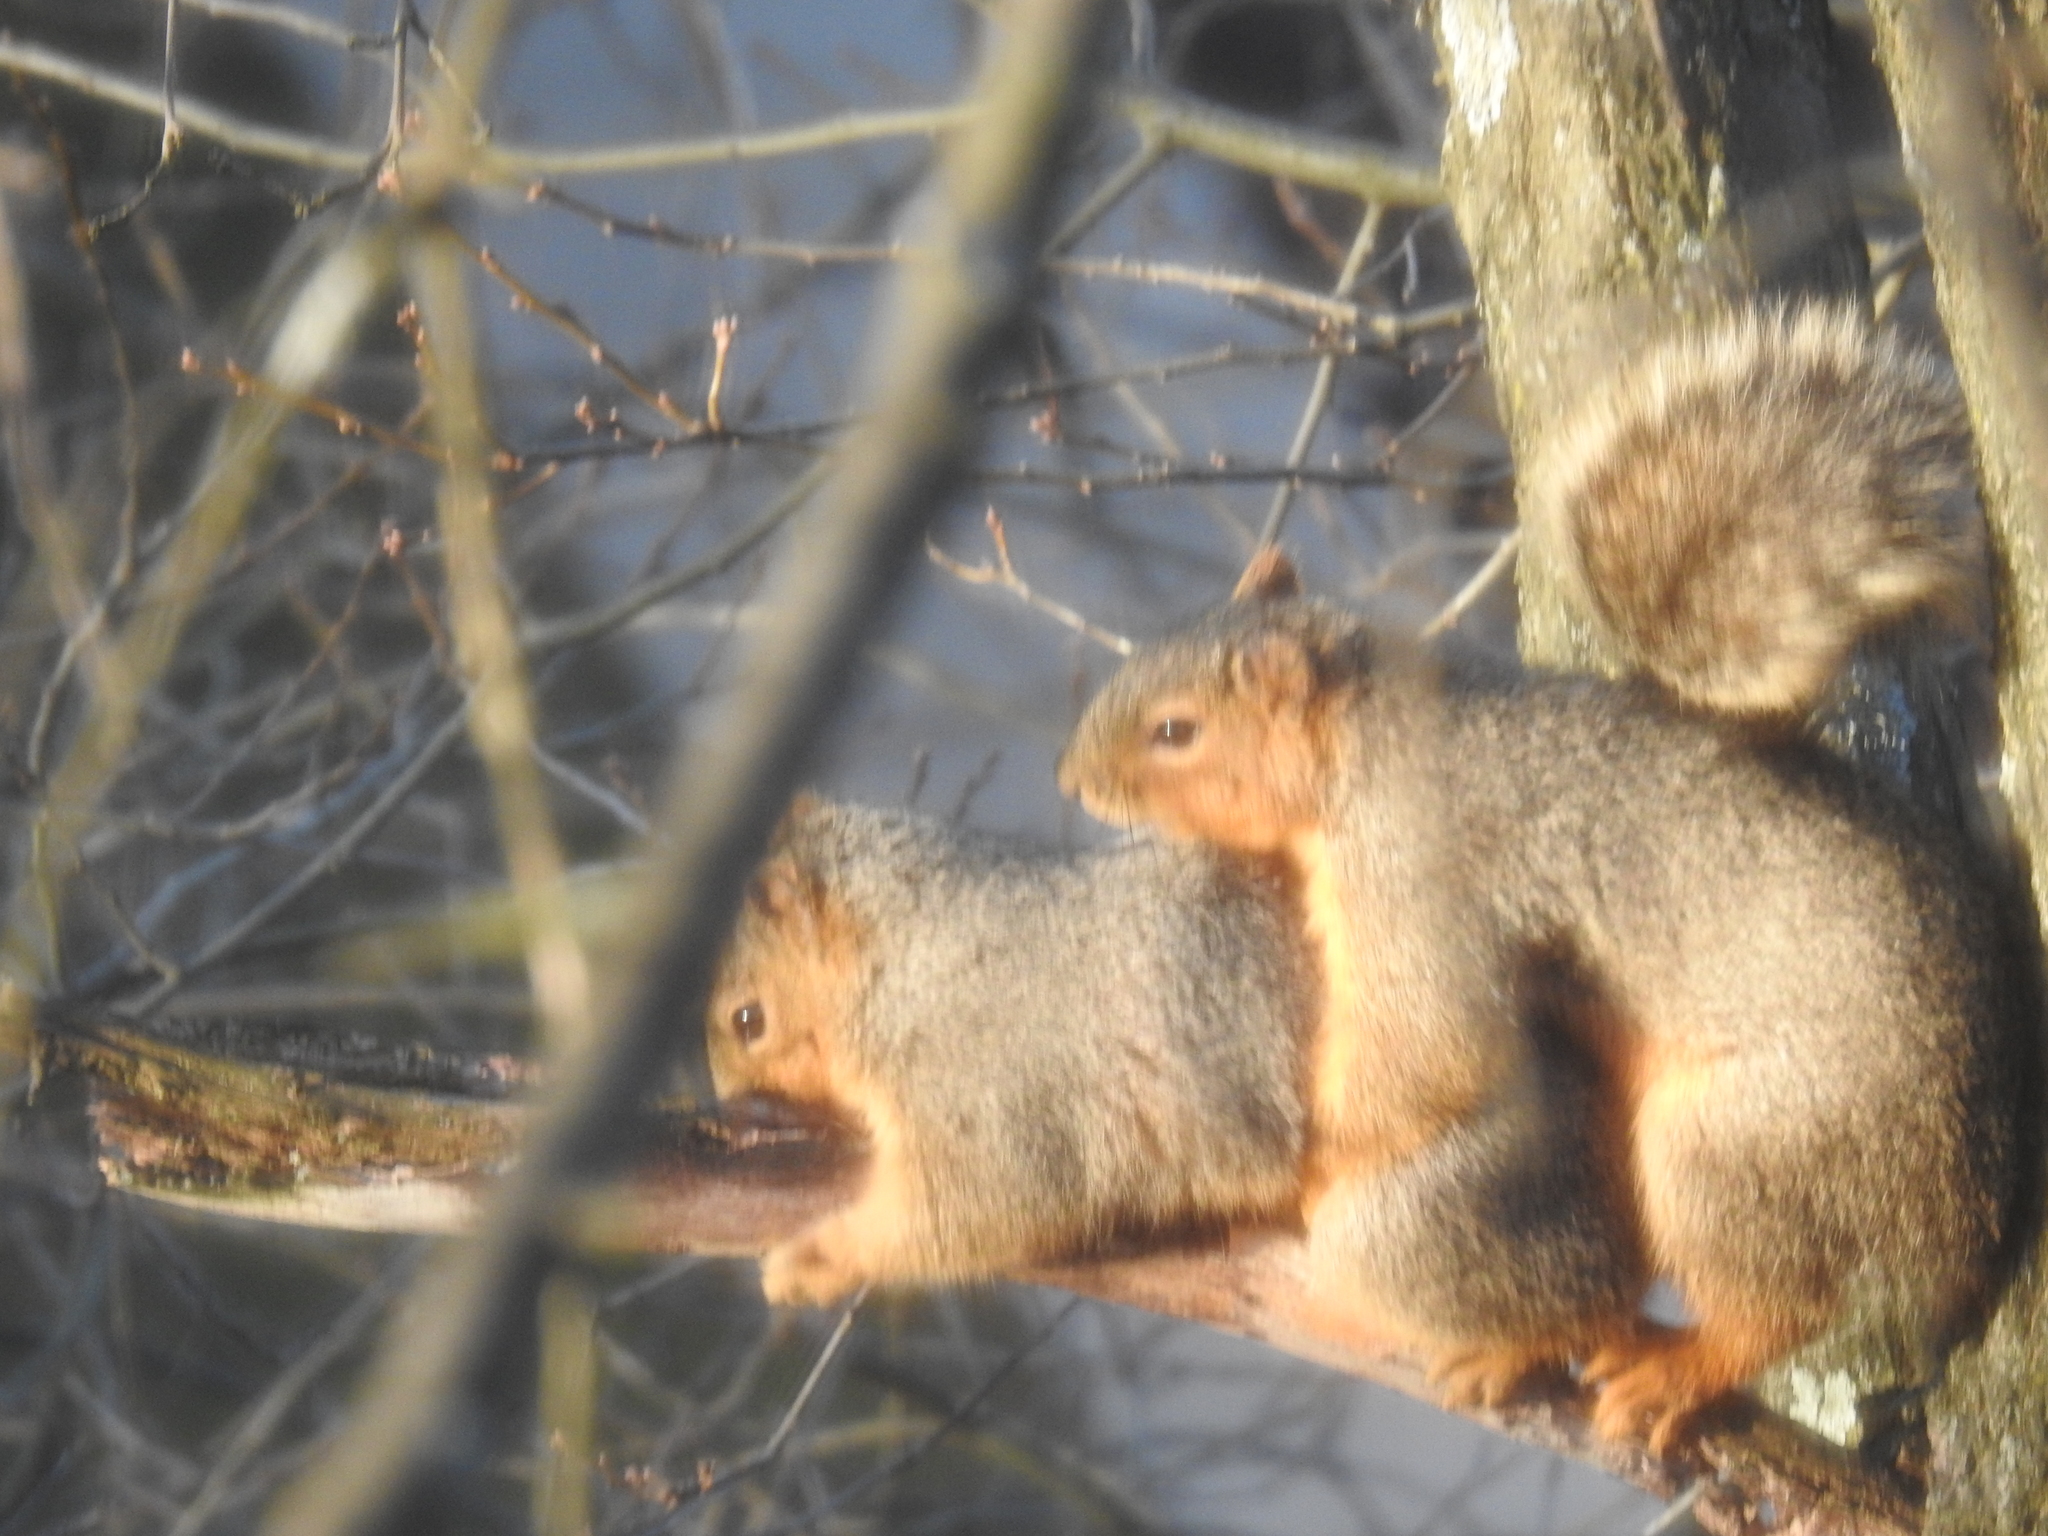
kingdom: Animalia
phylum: Chordata
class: Mammalia
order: Rodentia
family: Sciuridae
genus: Sciurus
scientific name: Sciurus niger
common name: Fox squirrel
